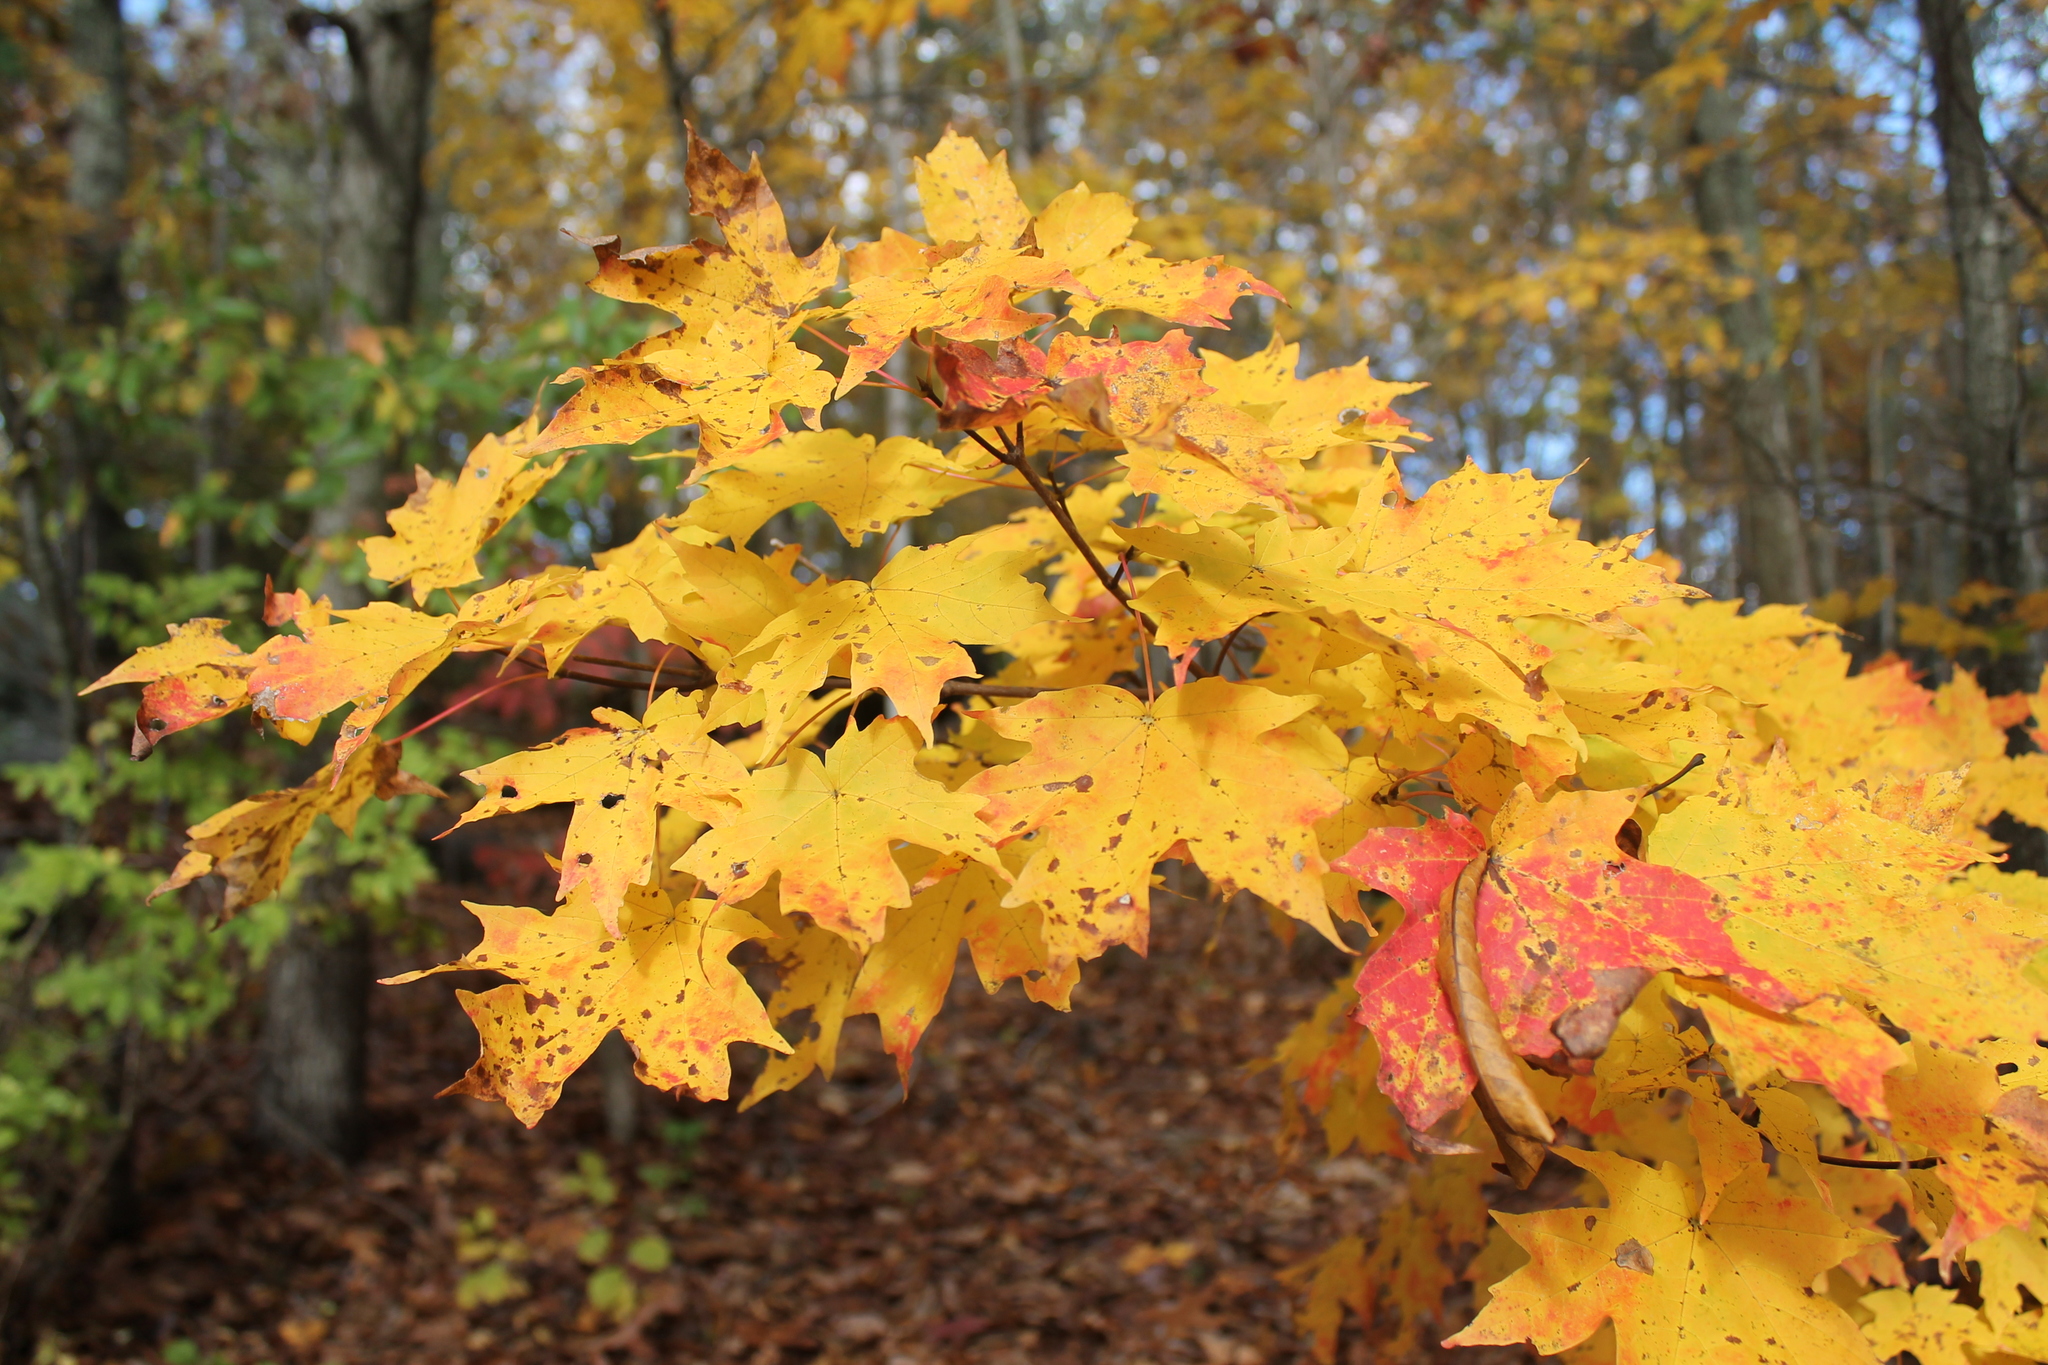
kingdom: Plantae
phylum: Tracheophyta
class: Magnoliopsida
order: Sapindales
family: Sapindaceae
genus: Acer
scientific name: Acer saccharum
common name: Sugar maple
